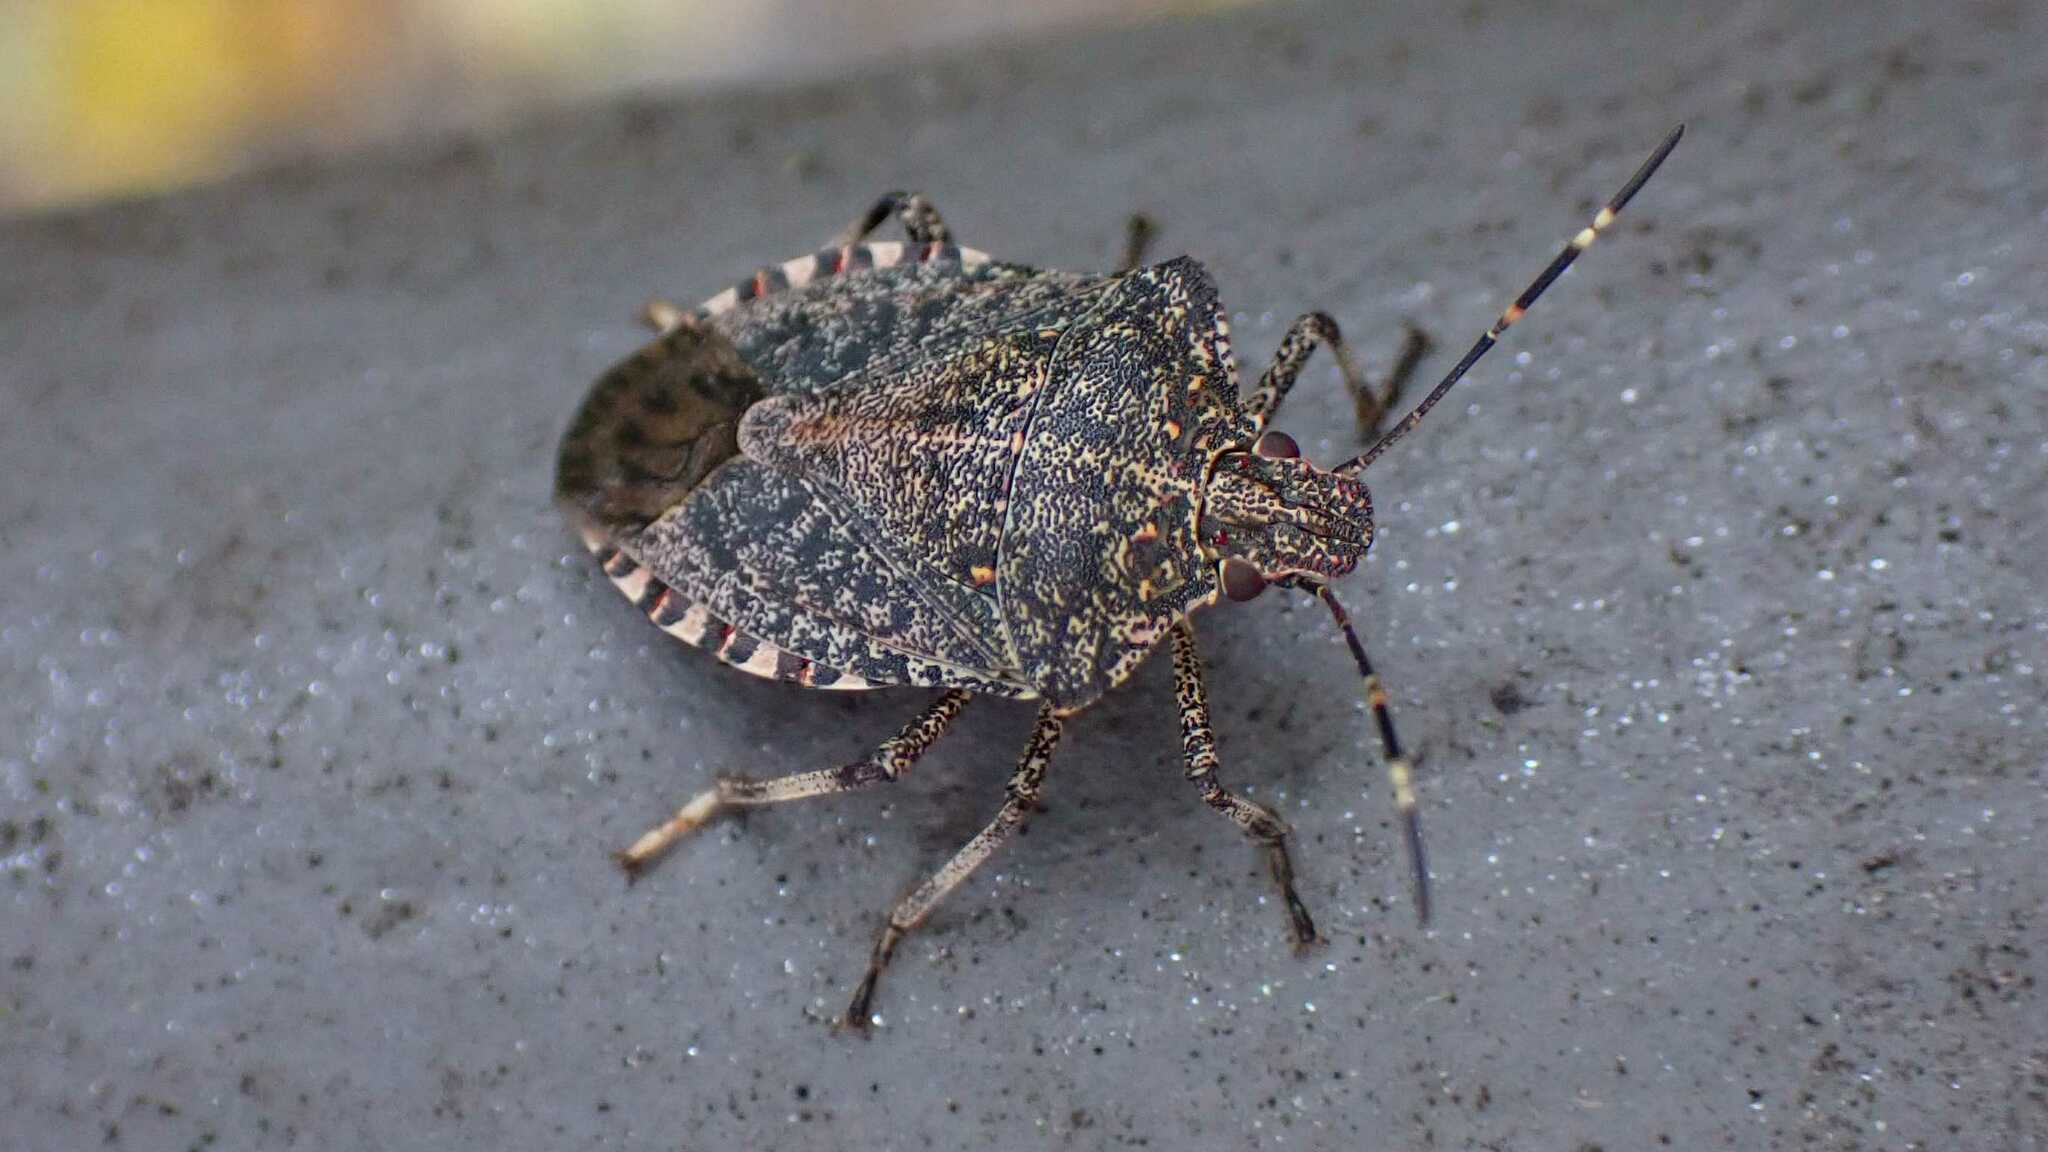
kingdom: Animalia
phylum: Arthropoda
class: Insecta
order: Hemiptera
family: Pentatomidae
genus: Halyomorpha
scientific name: Halyomorpha halys
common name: Brown marmorated stink bug
